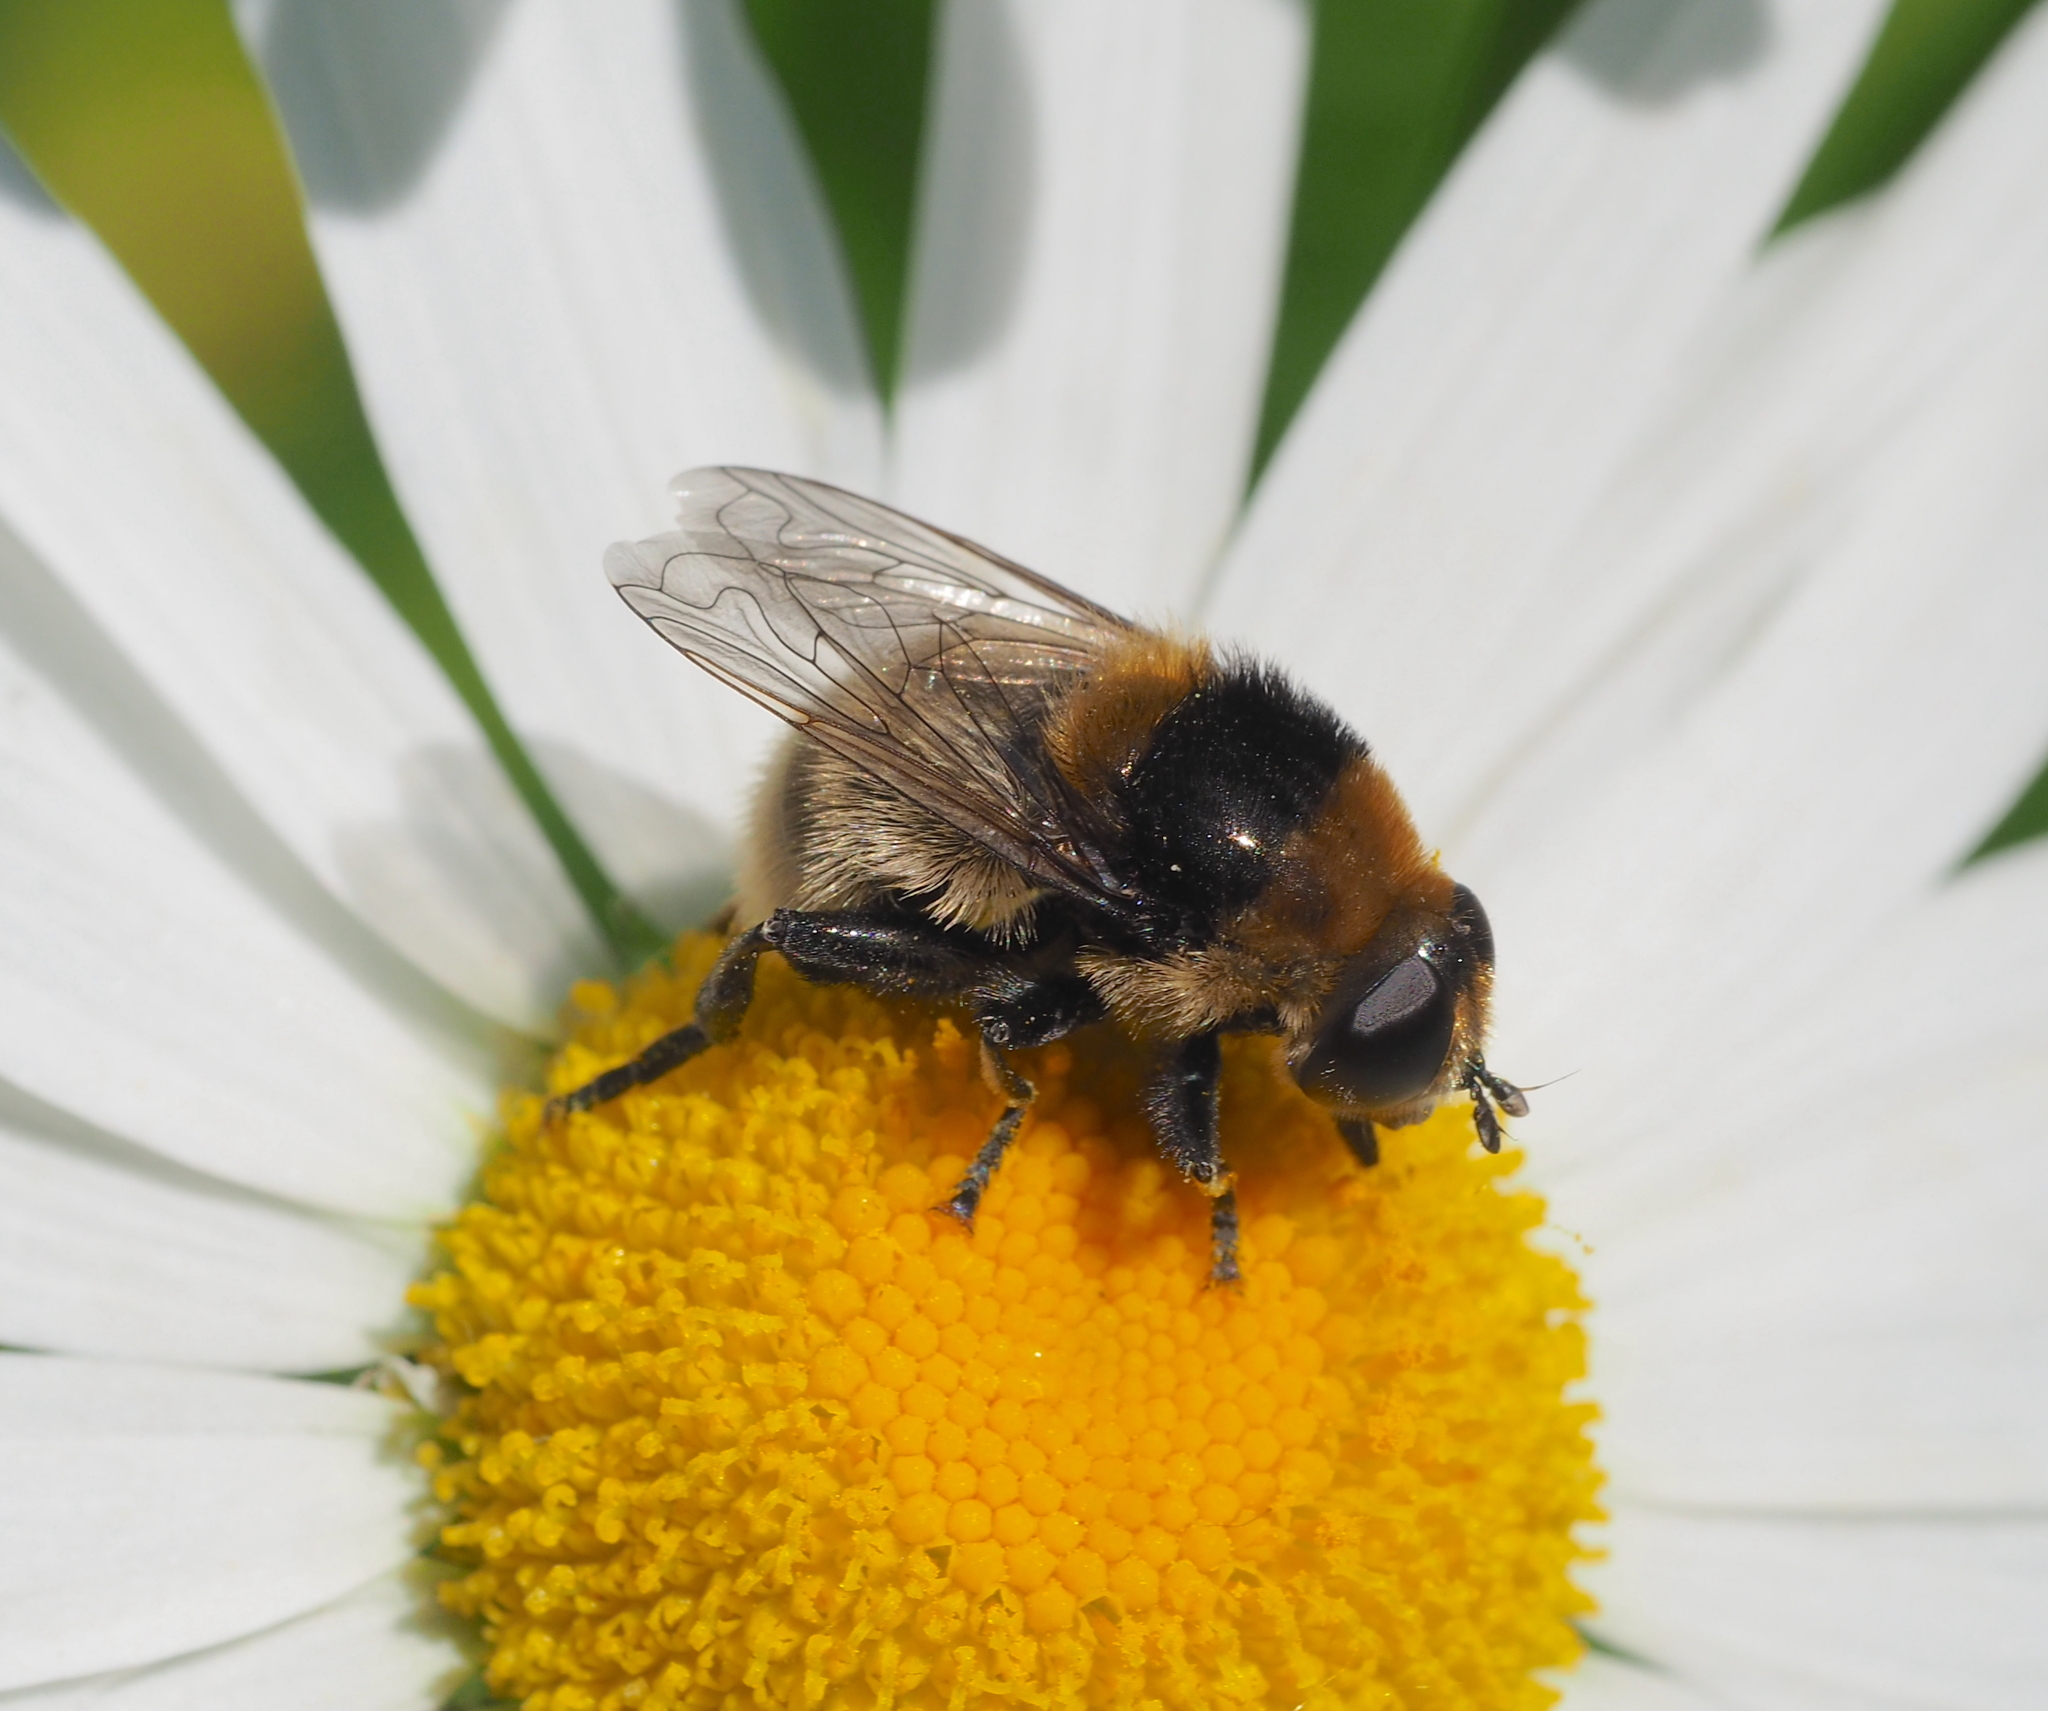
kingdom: Animalia
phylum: Arthropoda
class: Insecta
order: Diptera
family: Syrphidae
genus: Merodon
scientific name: Merodon equestris
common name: Greater bulb-fly
